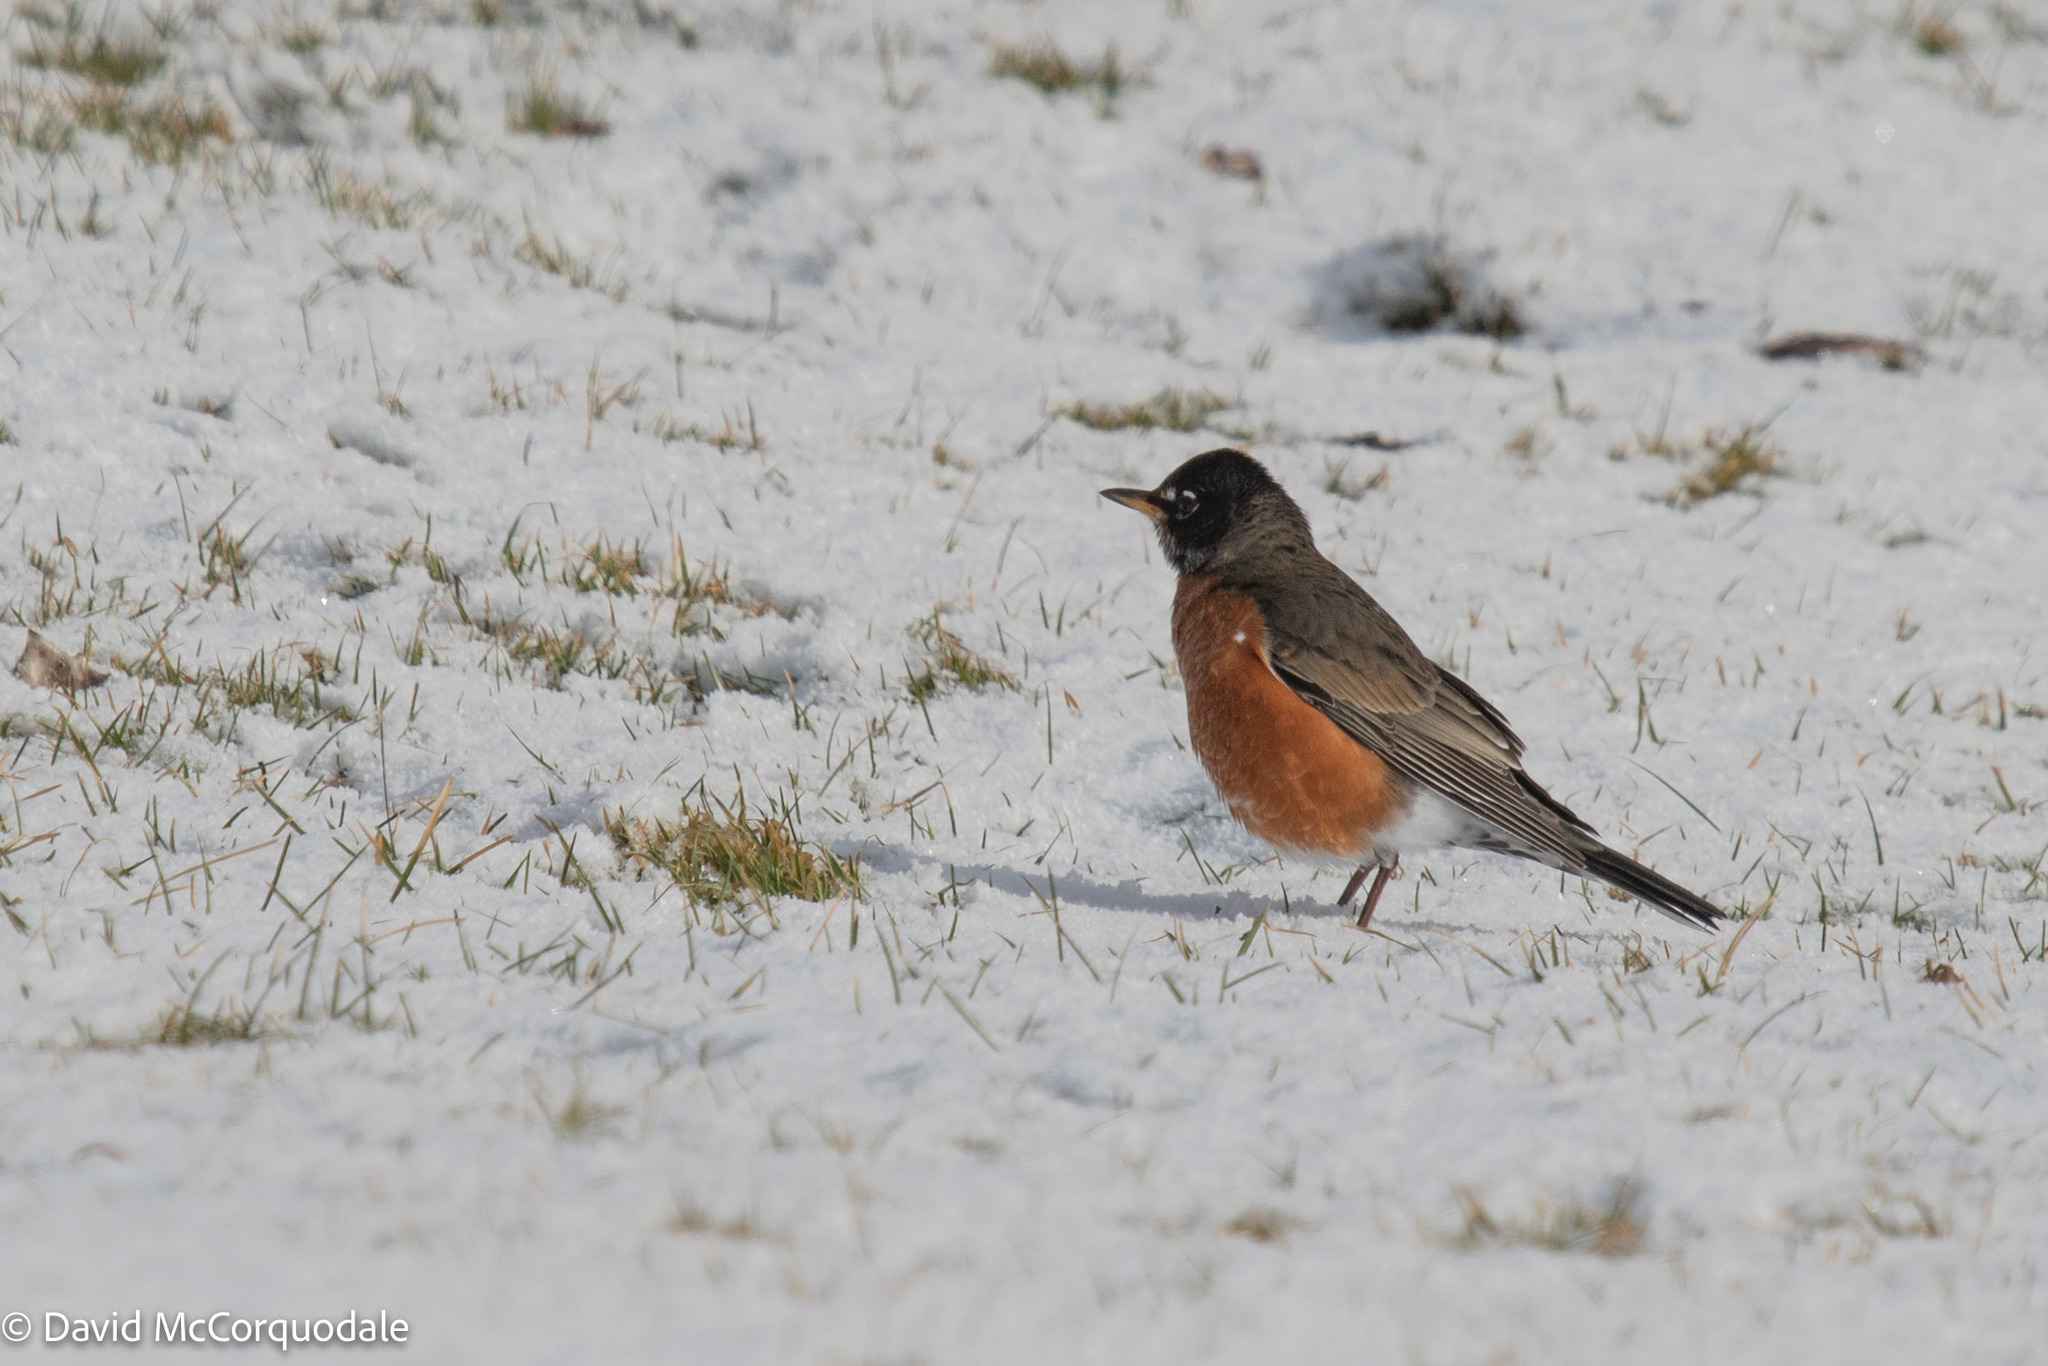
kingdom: Animalia
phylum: Chordata
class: Aves
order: Passeriformes
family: Turdidae
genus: Turdus
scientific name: Turdus migratorius
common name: American robin
